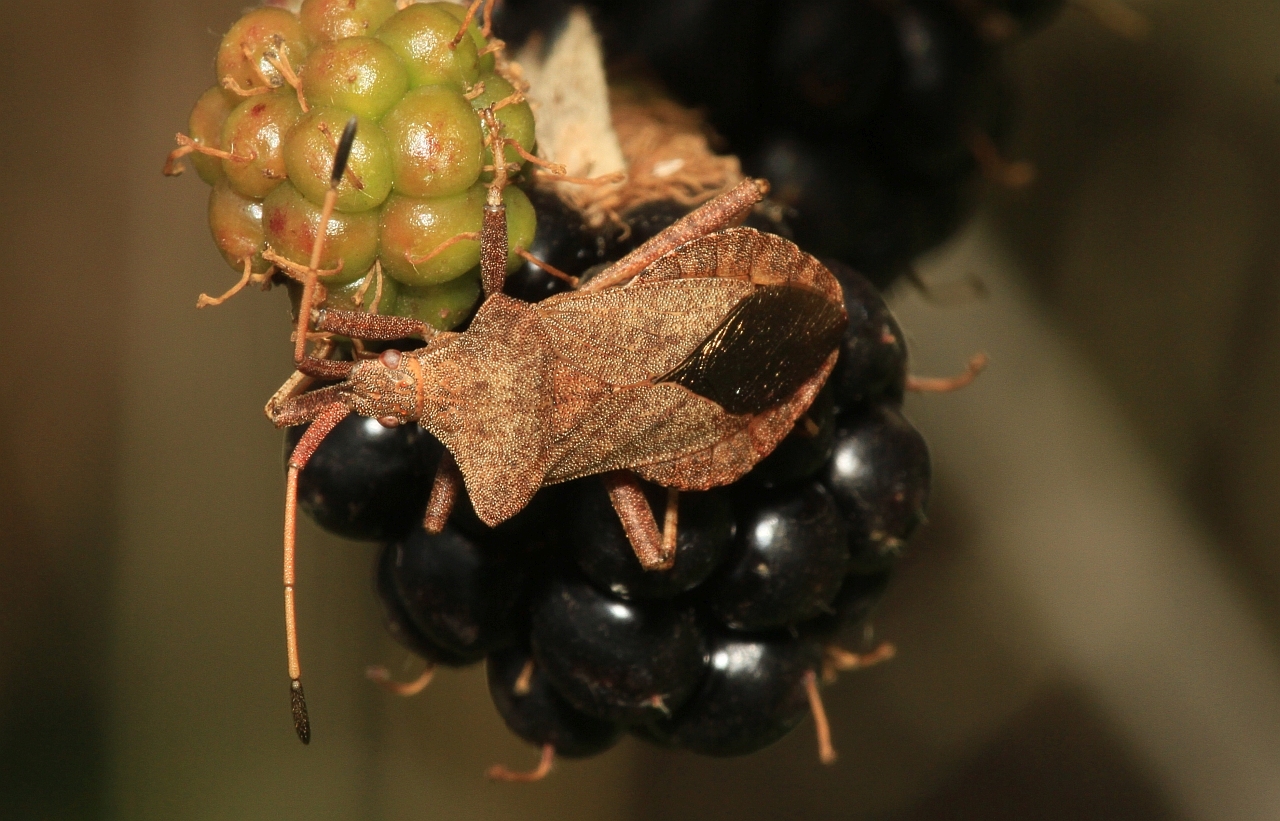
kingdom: Animalia
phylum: Arthropoda
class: Insecta
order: Hemiptera
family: Coreidae
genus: Coreus
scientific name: Coreus marginatus
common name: Dock bug
